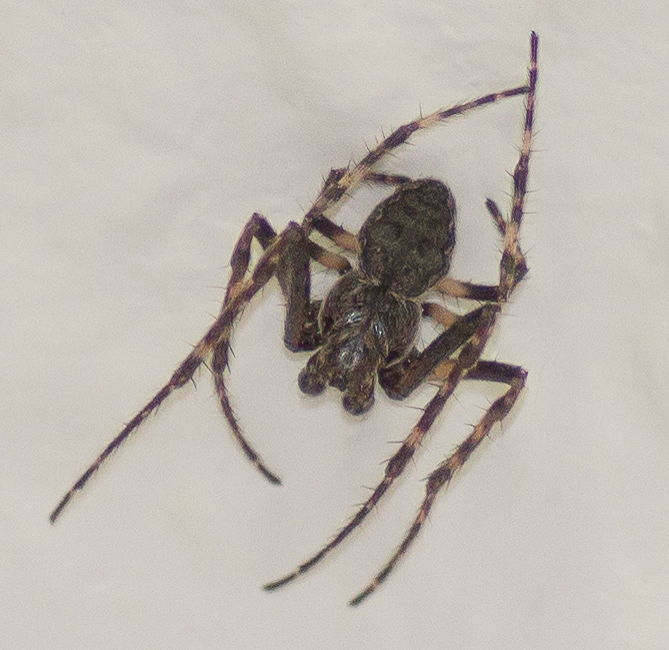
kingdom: Animalia
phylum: Arthropoda
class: Arachnida
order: Araneae
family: Araneidae
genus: Nuctenea
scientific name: Nuctenea umbratica
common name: Toad spider
